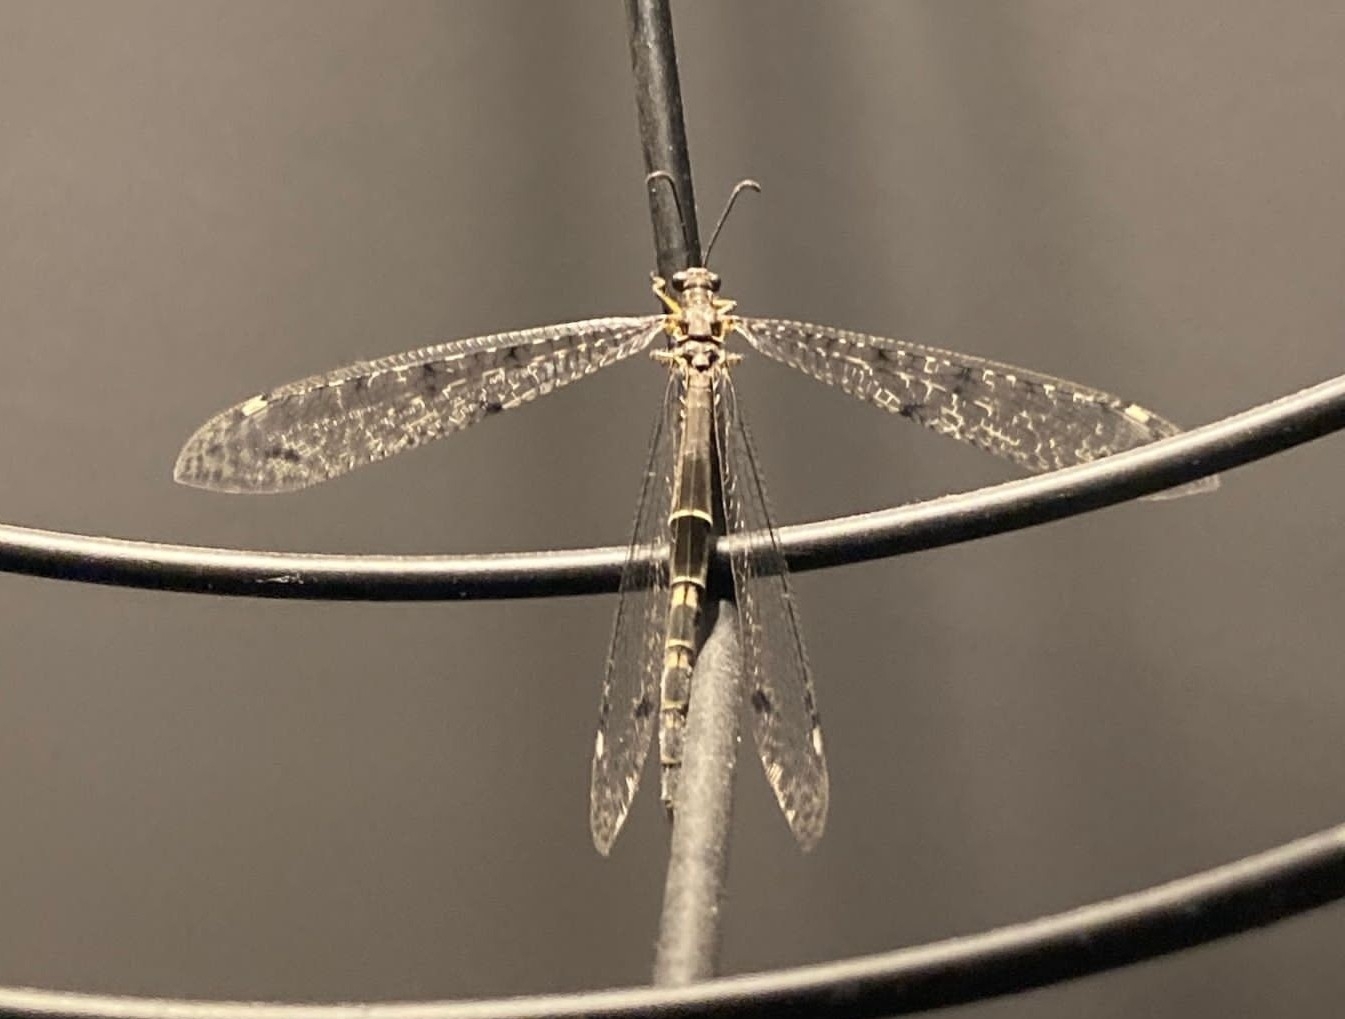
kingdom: Animalia
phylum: Arthropoda
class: Insecta
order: Neuroptera
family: Myrmeleontidae
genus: Distoleon
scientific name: Distoleon tetragrammicus
